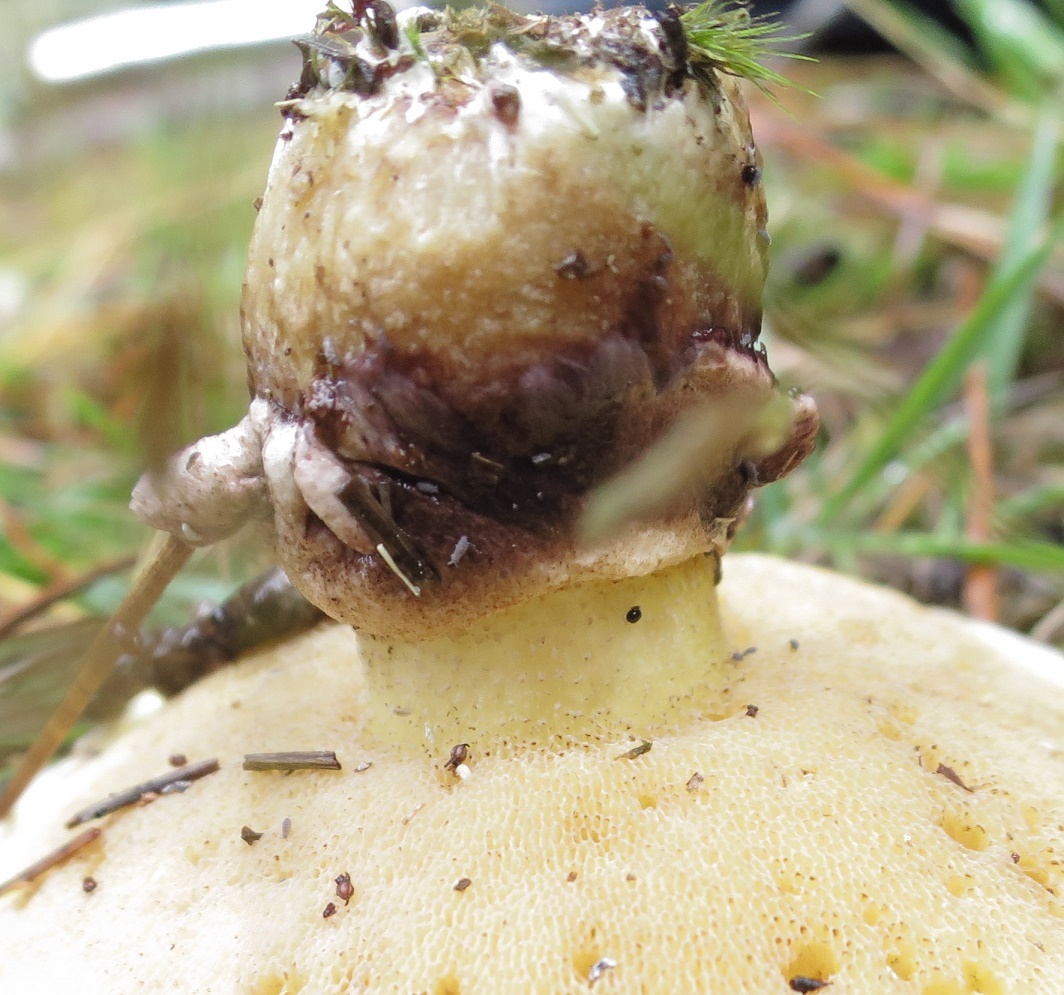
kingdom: Fungi
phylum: Basidiomycota
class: Agaricomycetes
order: Boletales
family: Suillaceae
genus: Suillus
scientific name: Suillus luteus
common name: Slippery jack
